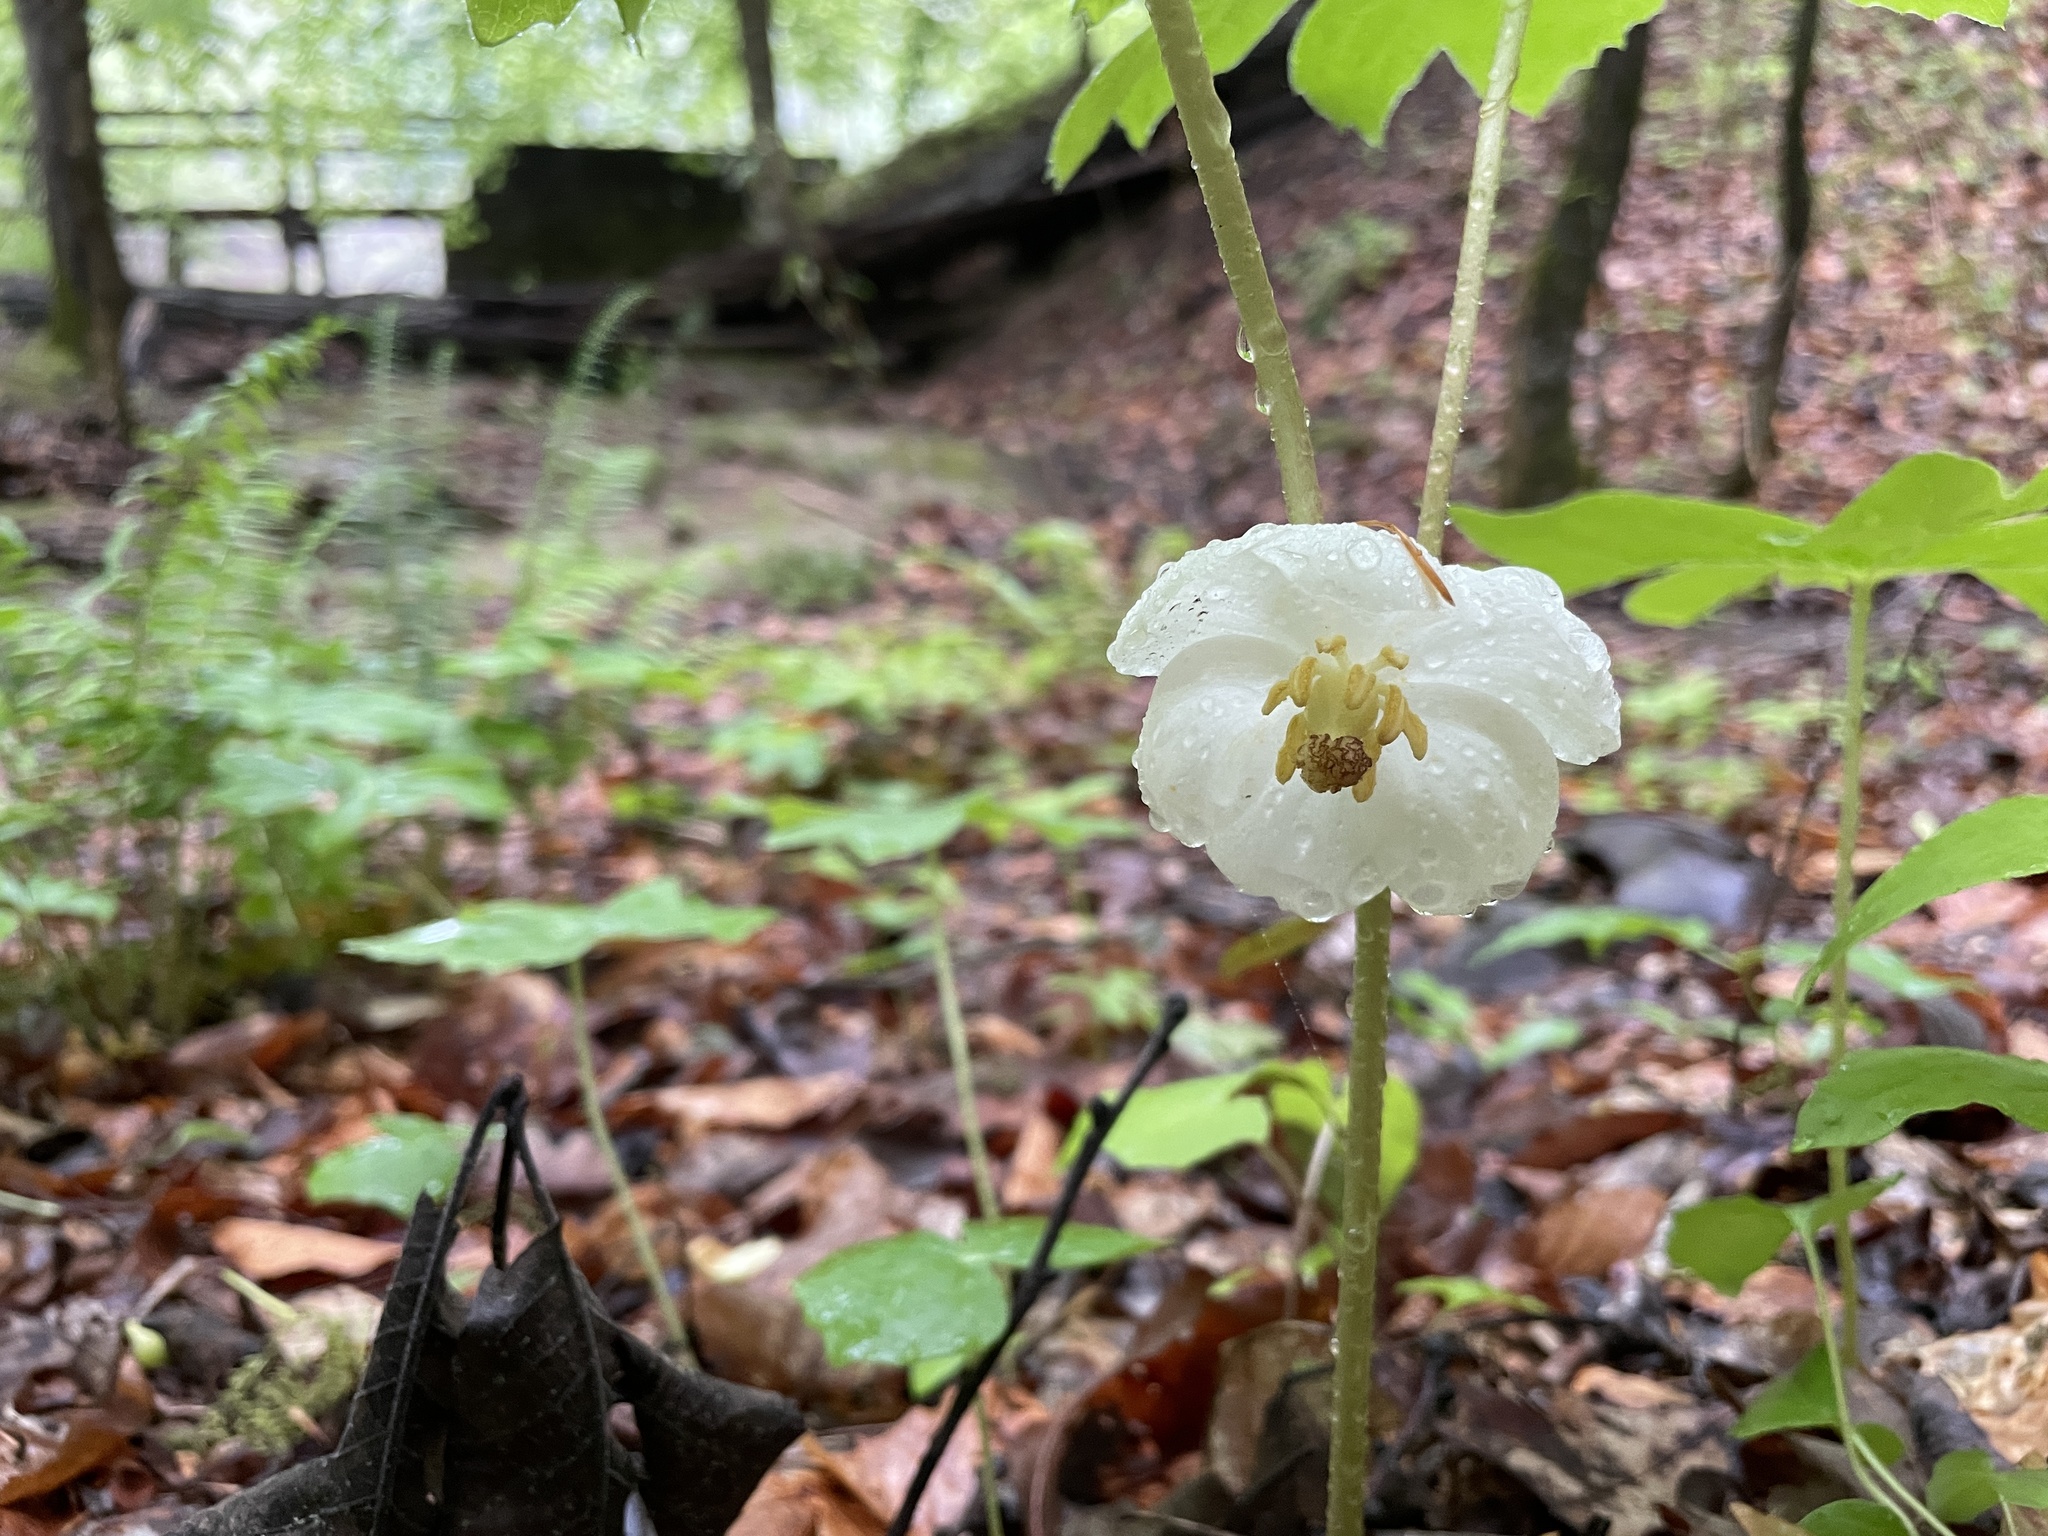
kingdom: Plantae
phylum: Tracheophyta
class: Magnoliopsida
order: Ranunculales
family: Berberidaceae
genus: Podophyllum
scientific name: Podophyllum peltatum
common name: Wild mandrake
